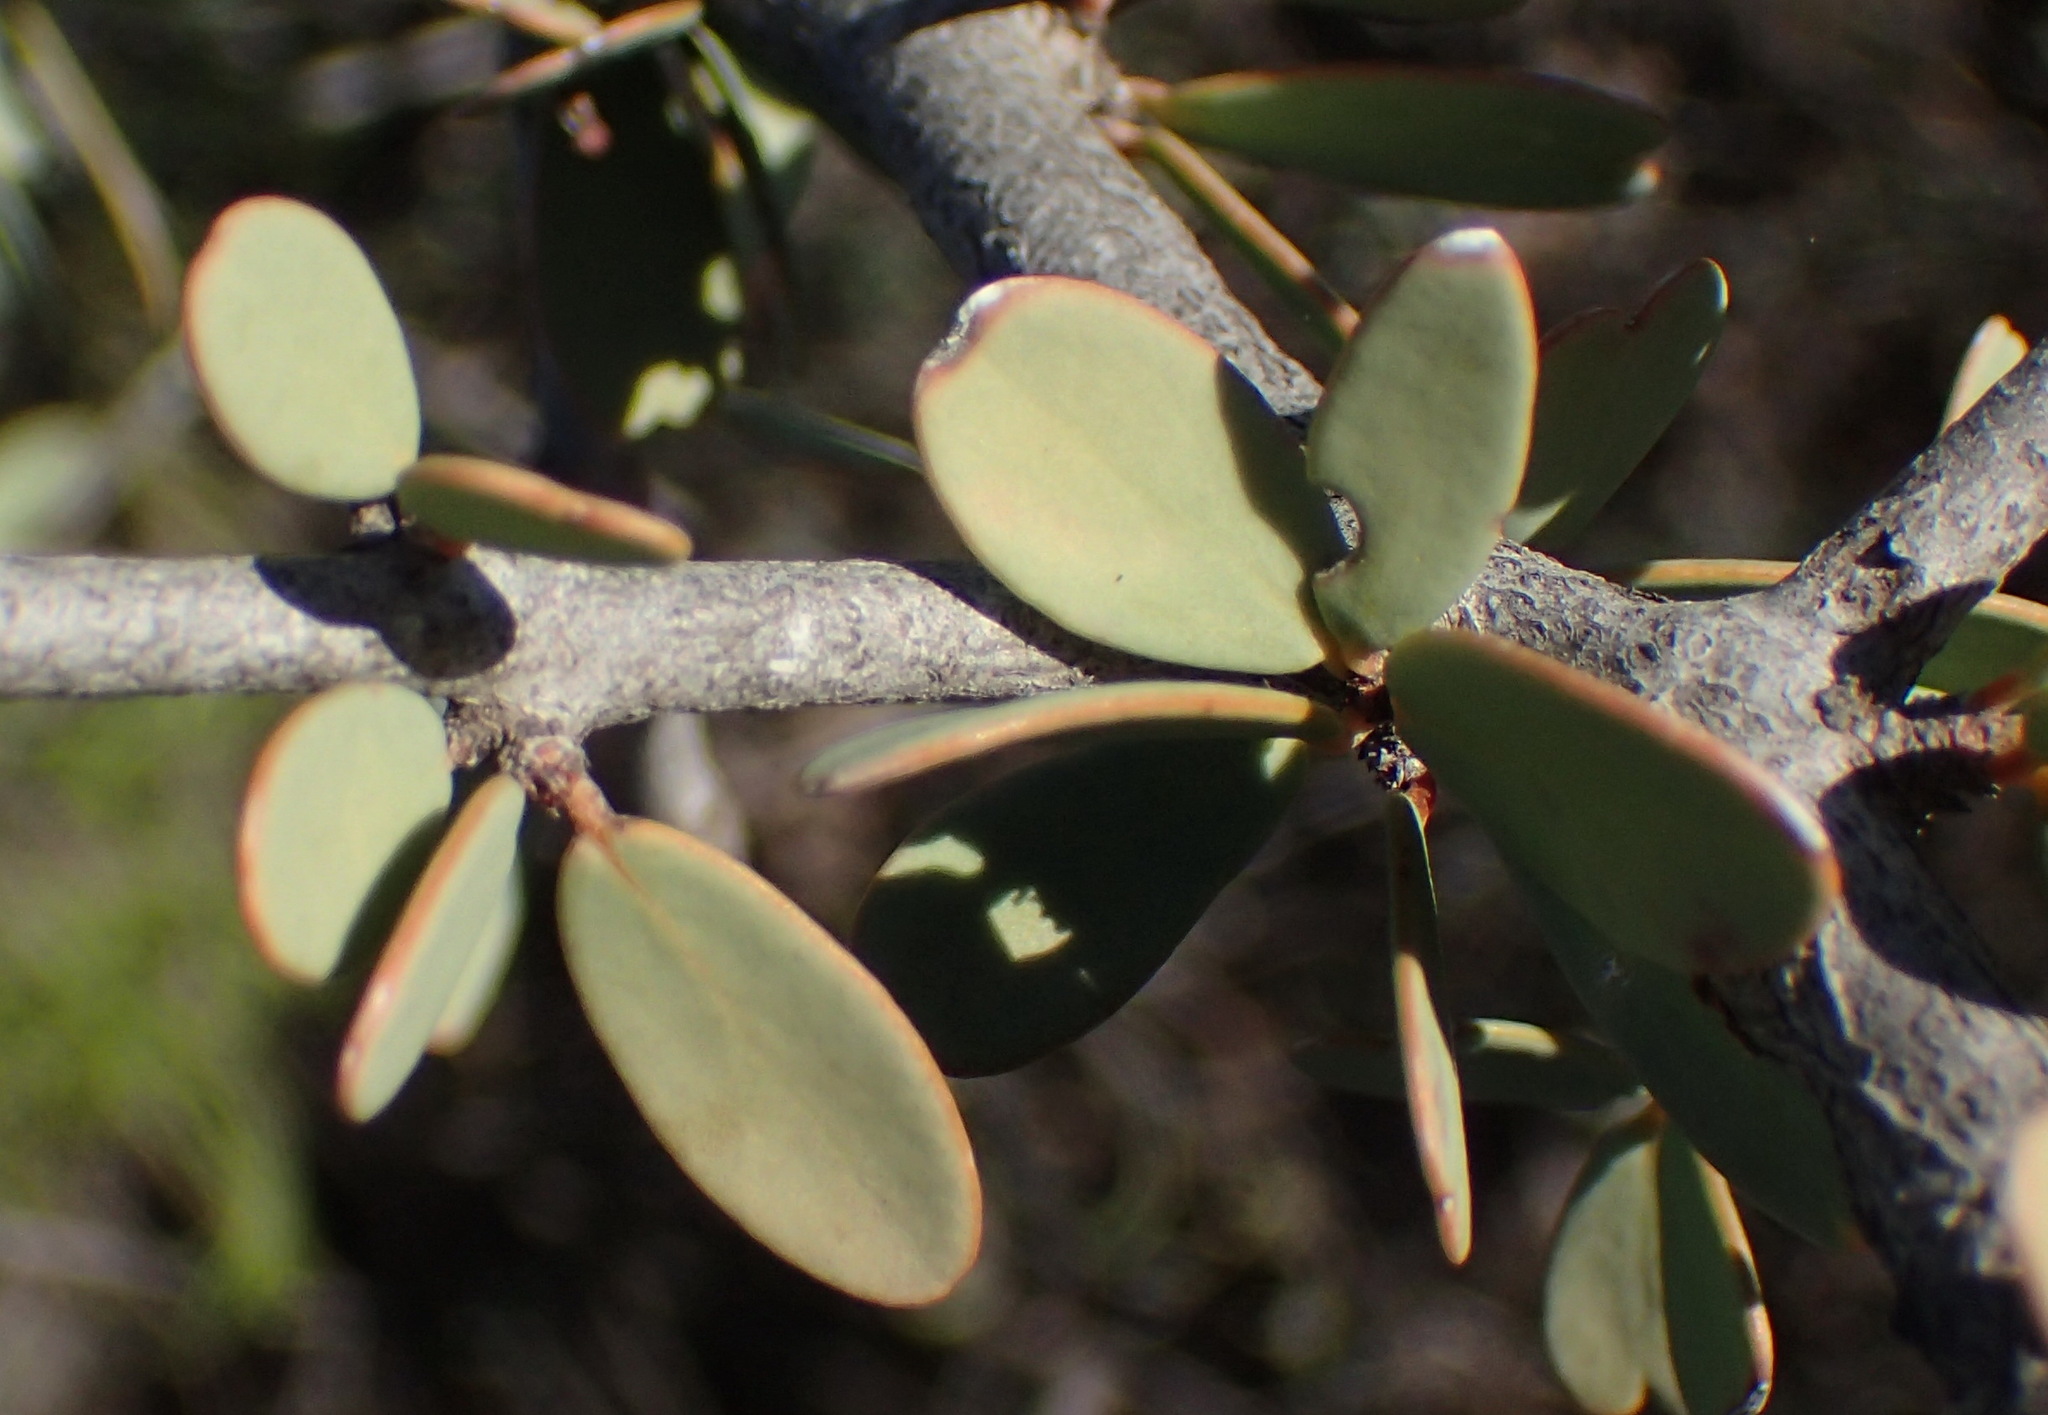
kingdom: Plantae
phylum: Tracheophyta
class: Magnoliopsida
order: Celastrales
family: Celastraceae
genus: Gloveria
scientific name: Gloveria integrifolia
